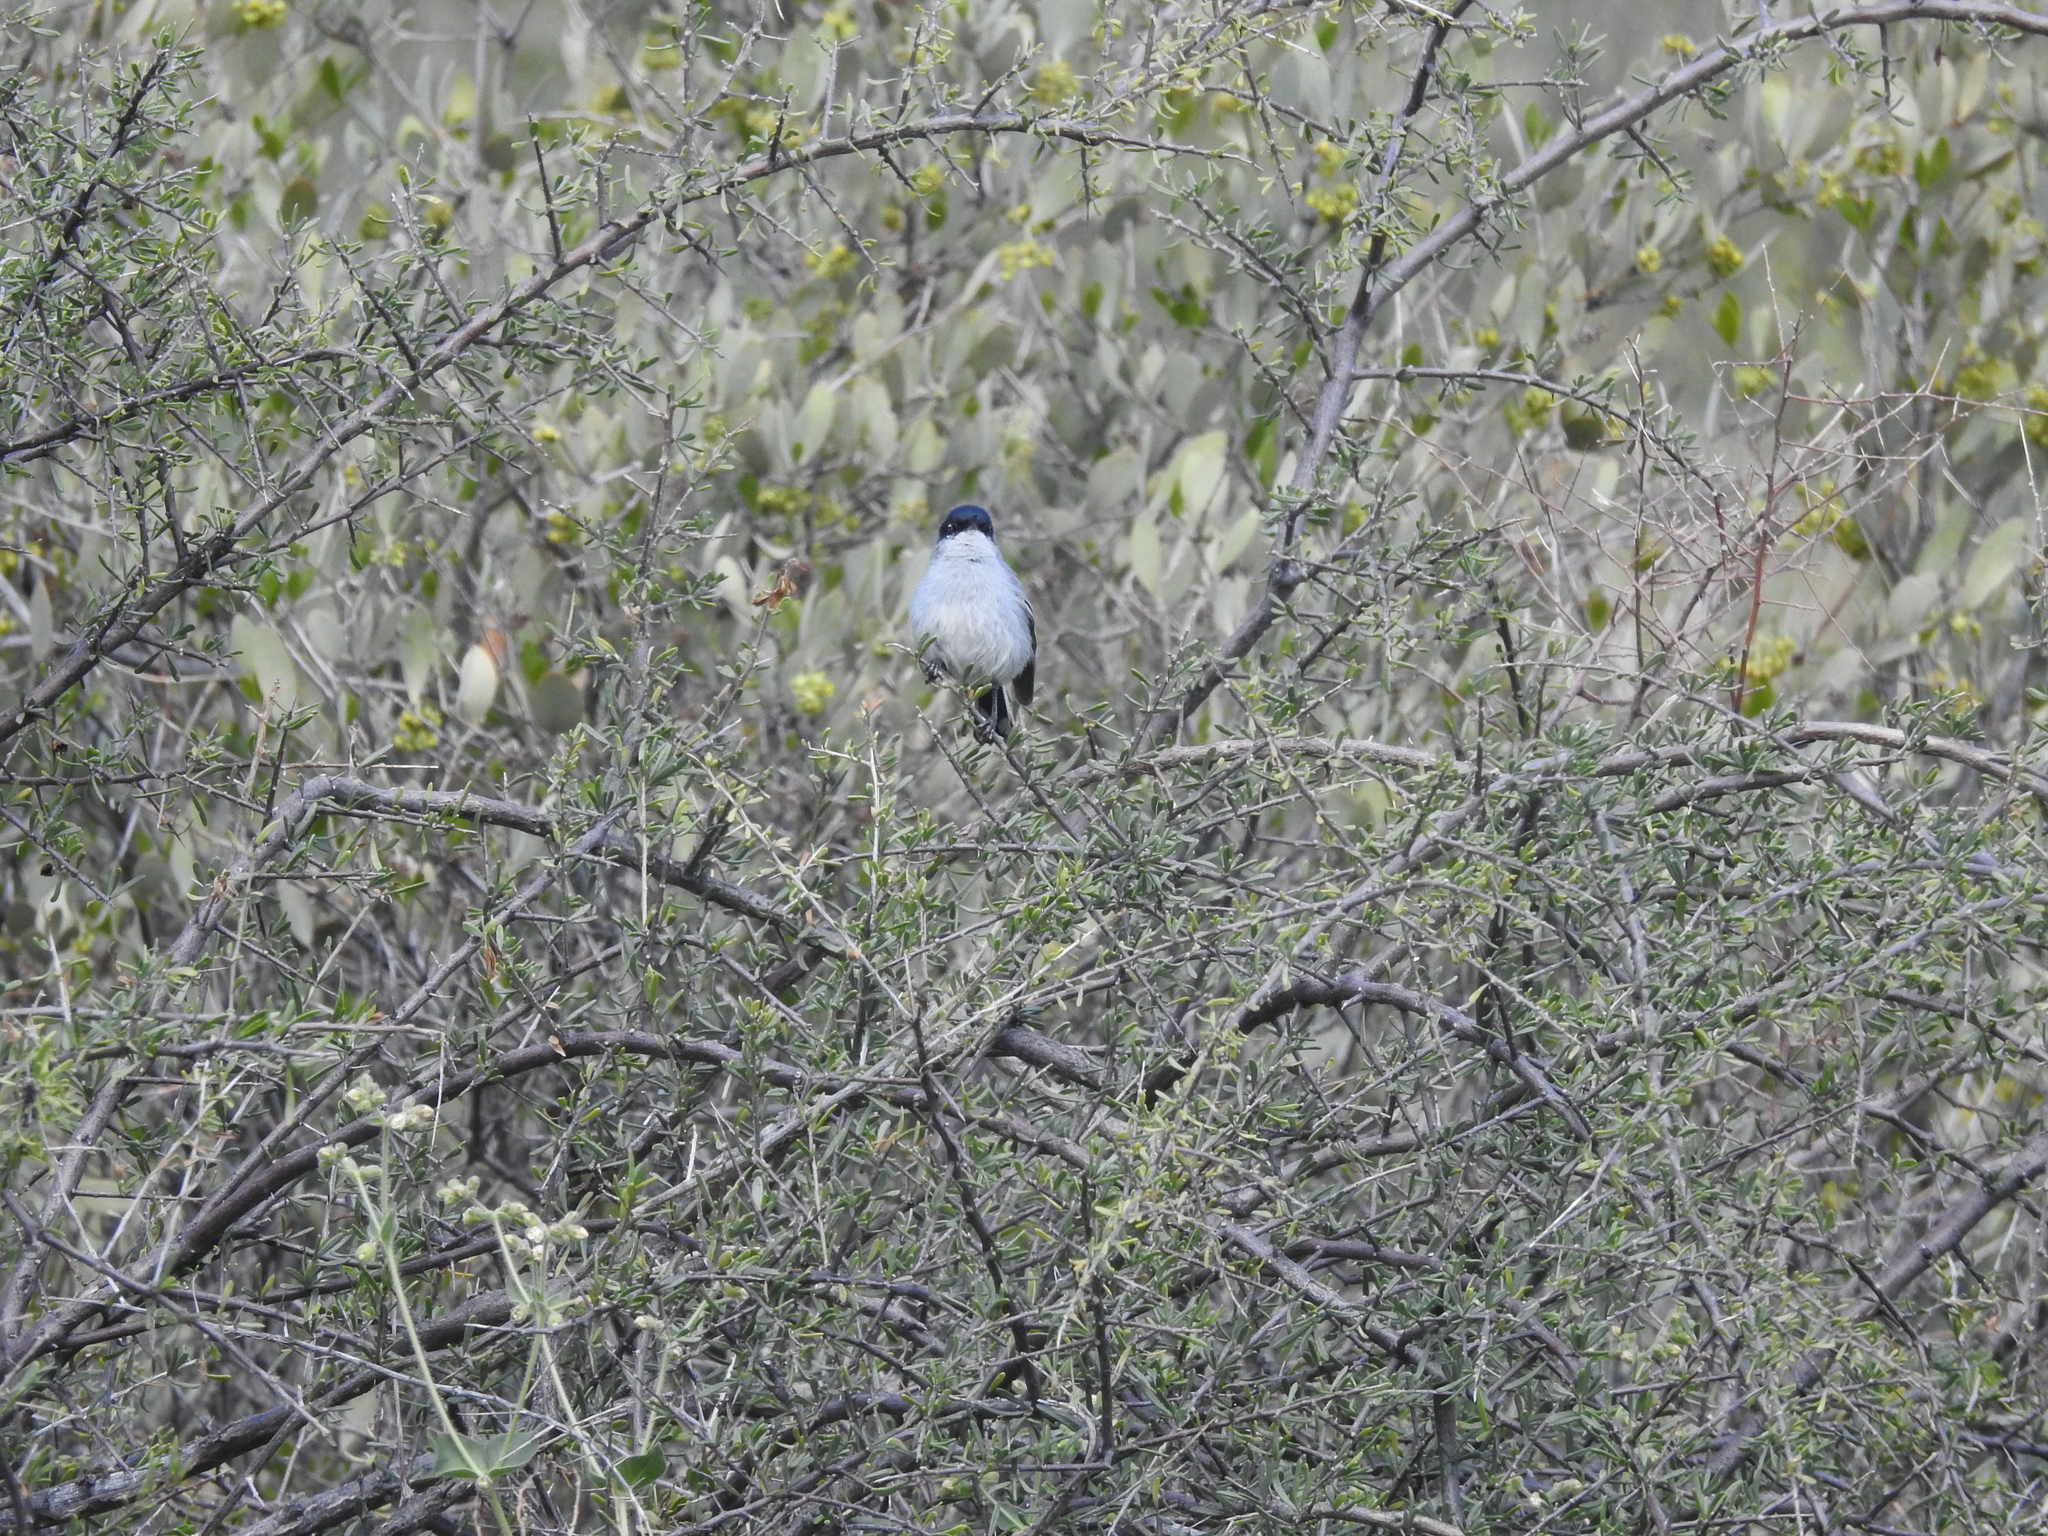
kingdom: Animalia
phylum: Chordata
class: Aves
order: Passeriformes
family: Polioptilidae
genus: Polioptila
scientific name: Polioptila melanura
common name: Black-tailed gnatcatcher
